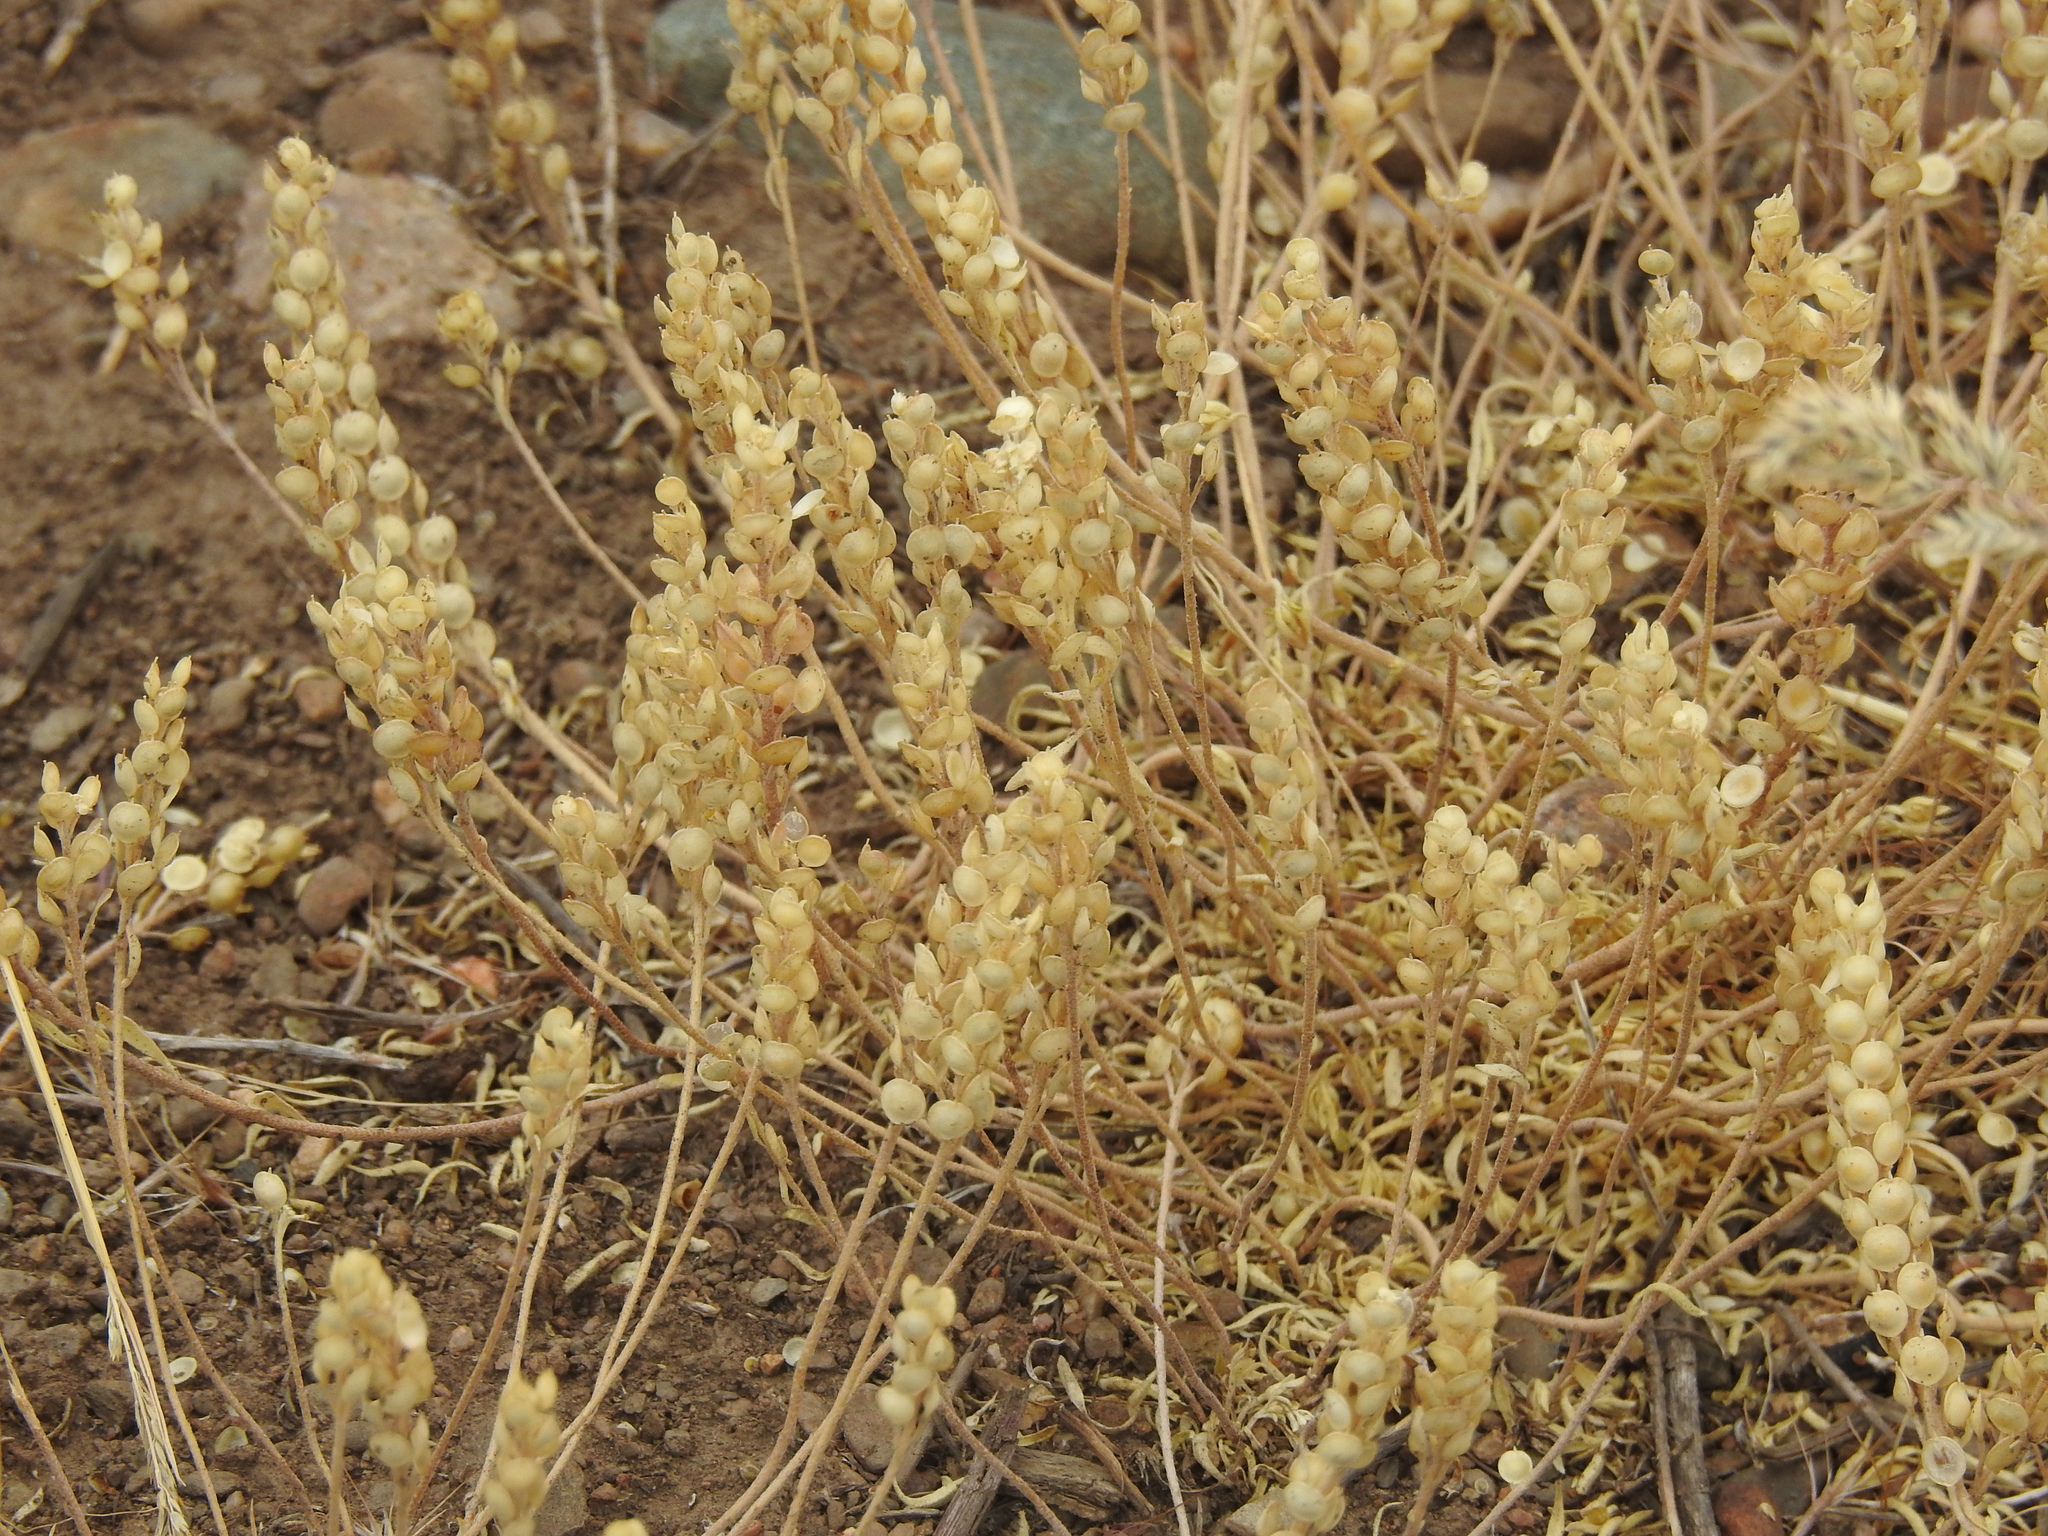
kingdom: Plantae
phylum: Tracheophyta
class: Magnoliopsida
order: Brassicales
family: Brassicaceae
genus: Alyssum
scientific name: Alyssum turkestanicum
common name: Desert alyssum
